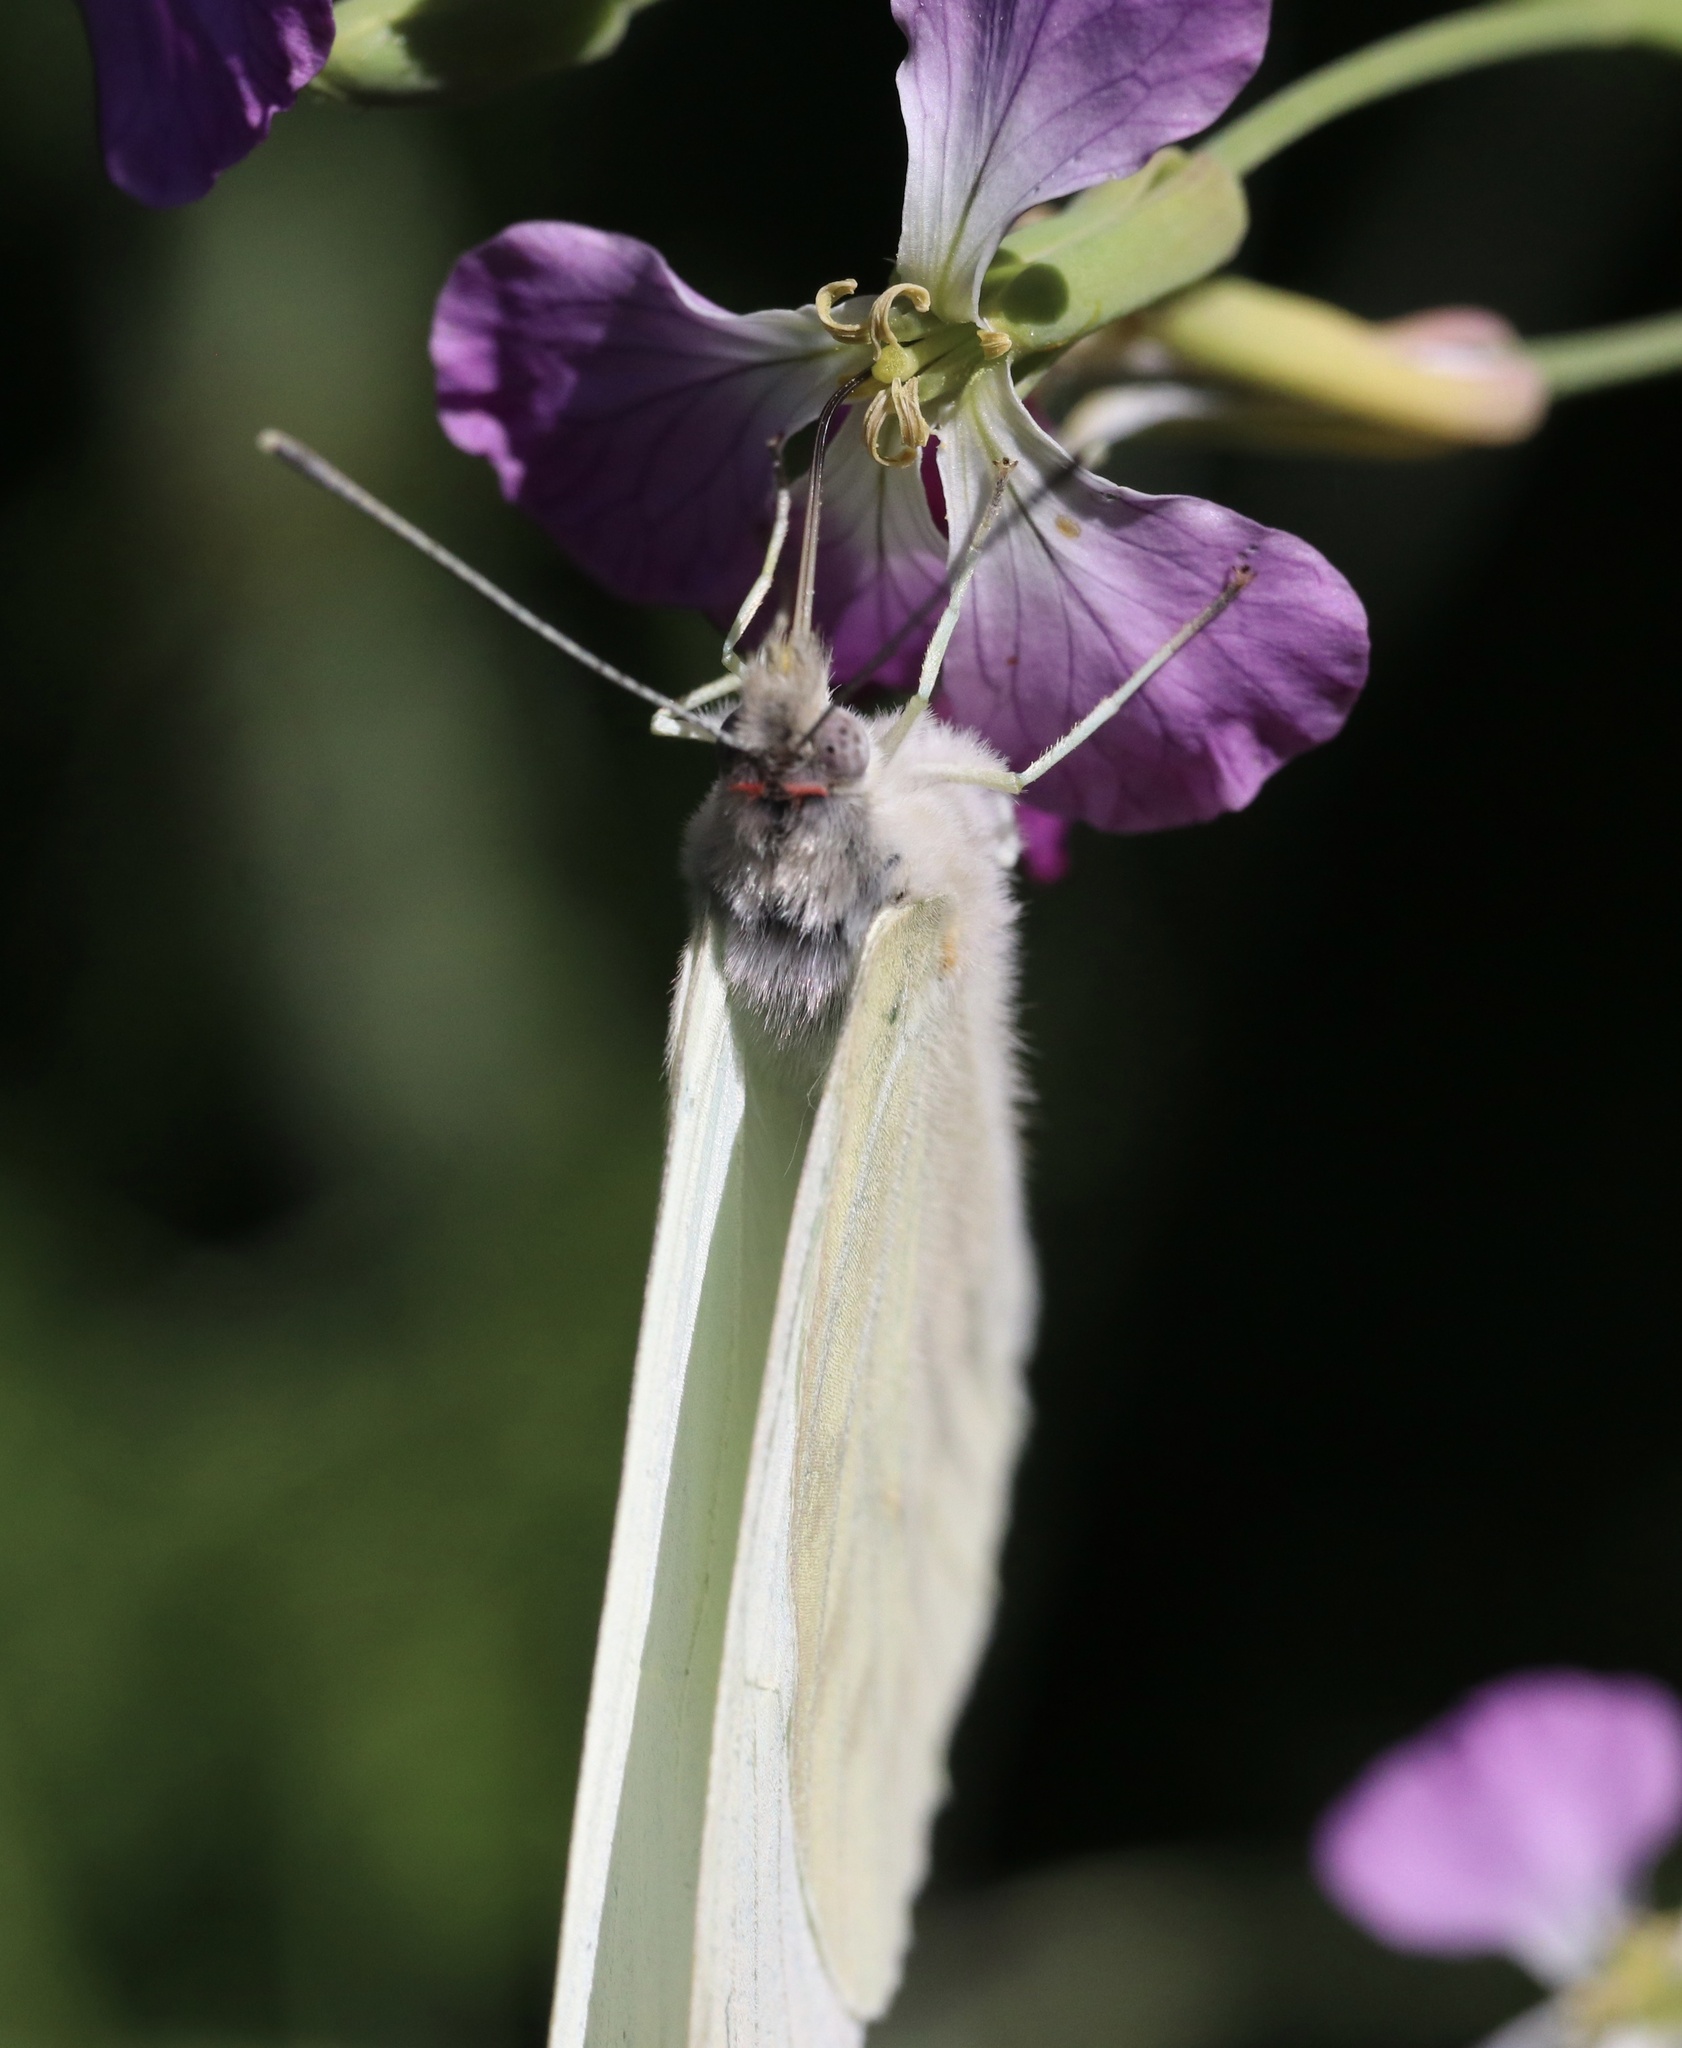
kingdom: Animalia
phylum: Arthropoda
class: Insecta
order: Lepidoptera
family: Pieridae
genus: Mathania
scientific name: Mathania leucothea
